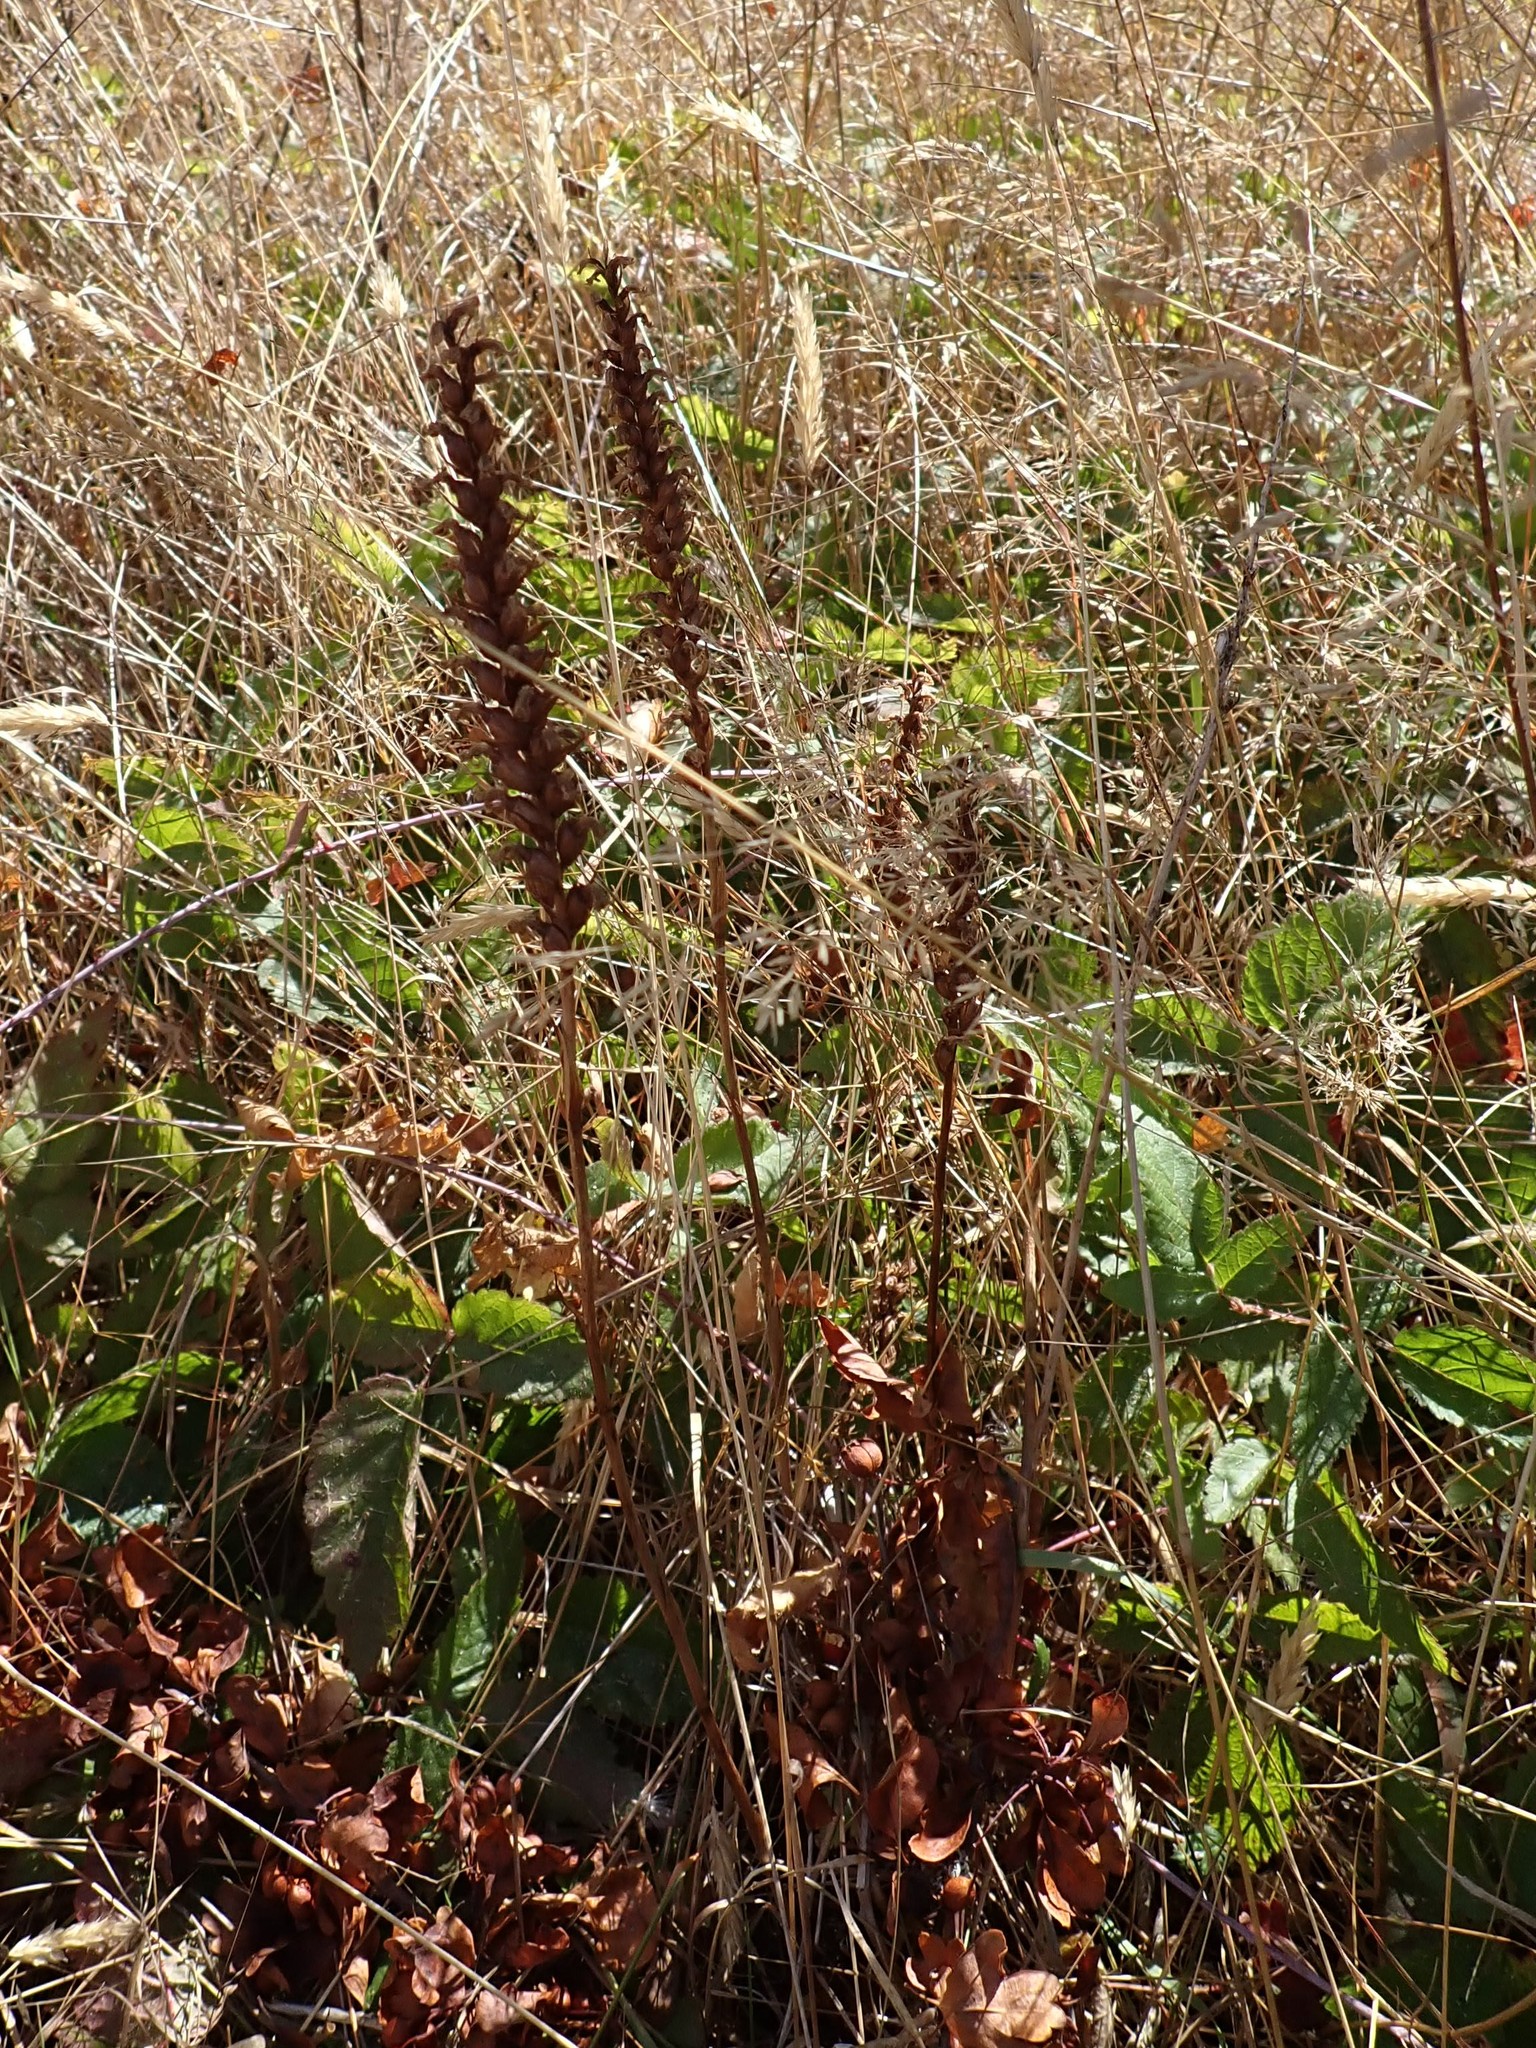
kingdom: Plantae
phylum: Tracheophyta
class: Liliopsida
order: Asparagales
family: Orchidaceae
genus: Spiranthes
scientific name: Spiranthes romanzoffiana
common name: Irish lady's-tresses
